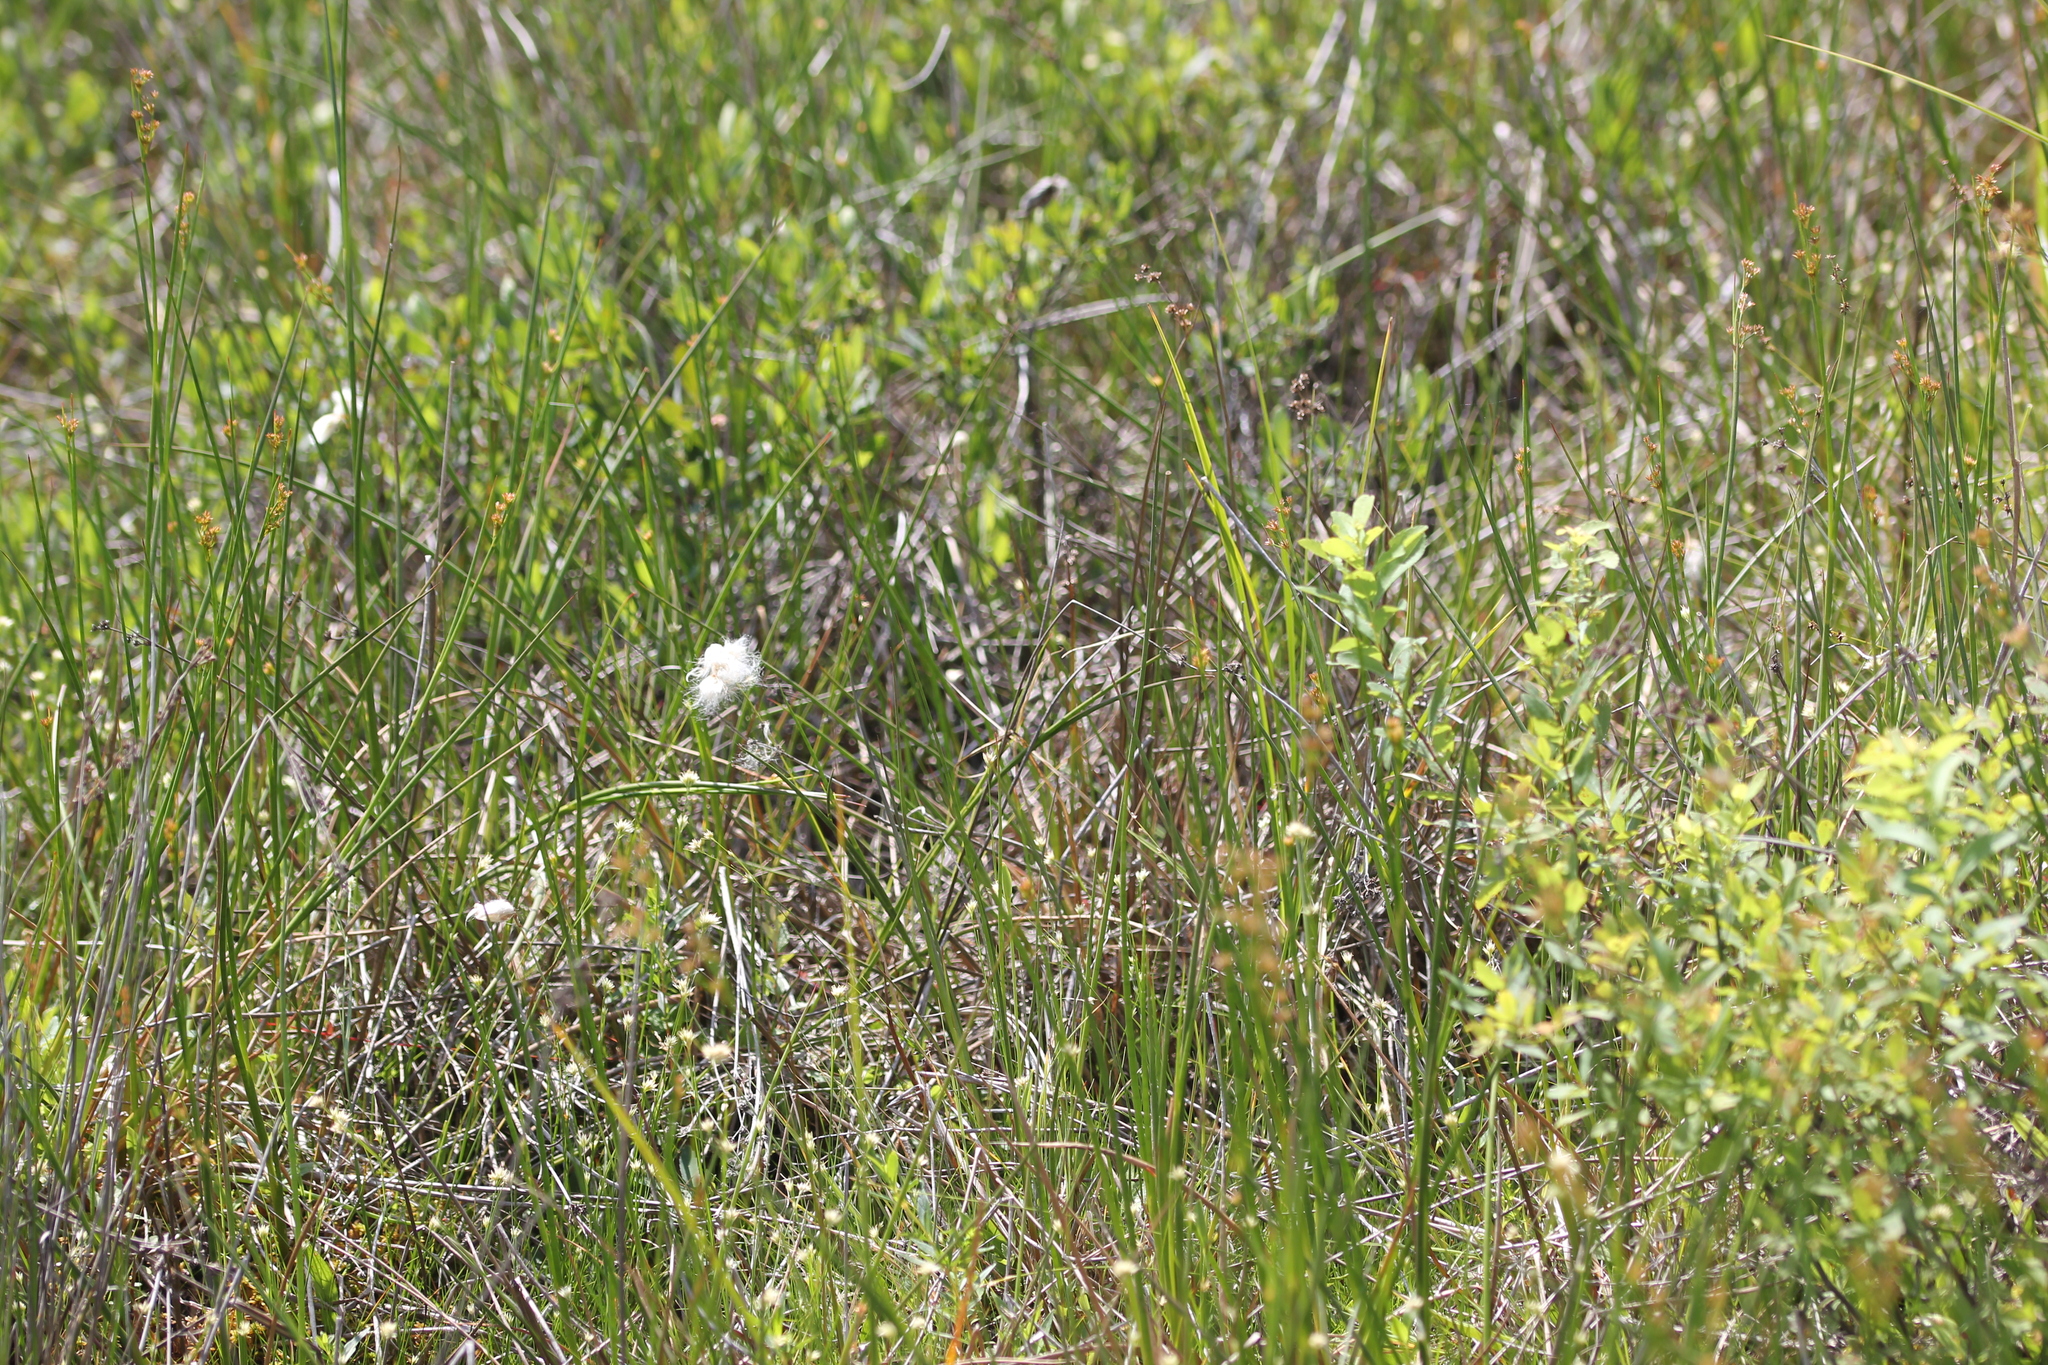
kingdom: Plantae
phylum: Tracheophyta
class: Liliopsida
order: Poales
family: Cyperaceae
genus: Eriophorum
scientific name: Eriophorum tenellum
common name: Few-nerved cottongrass
